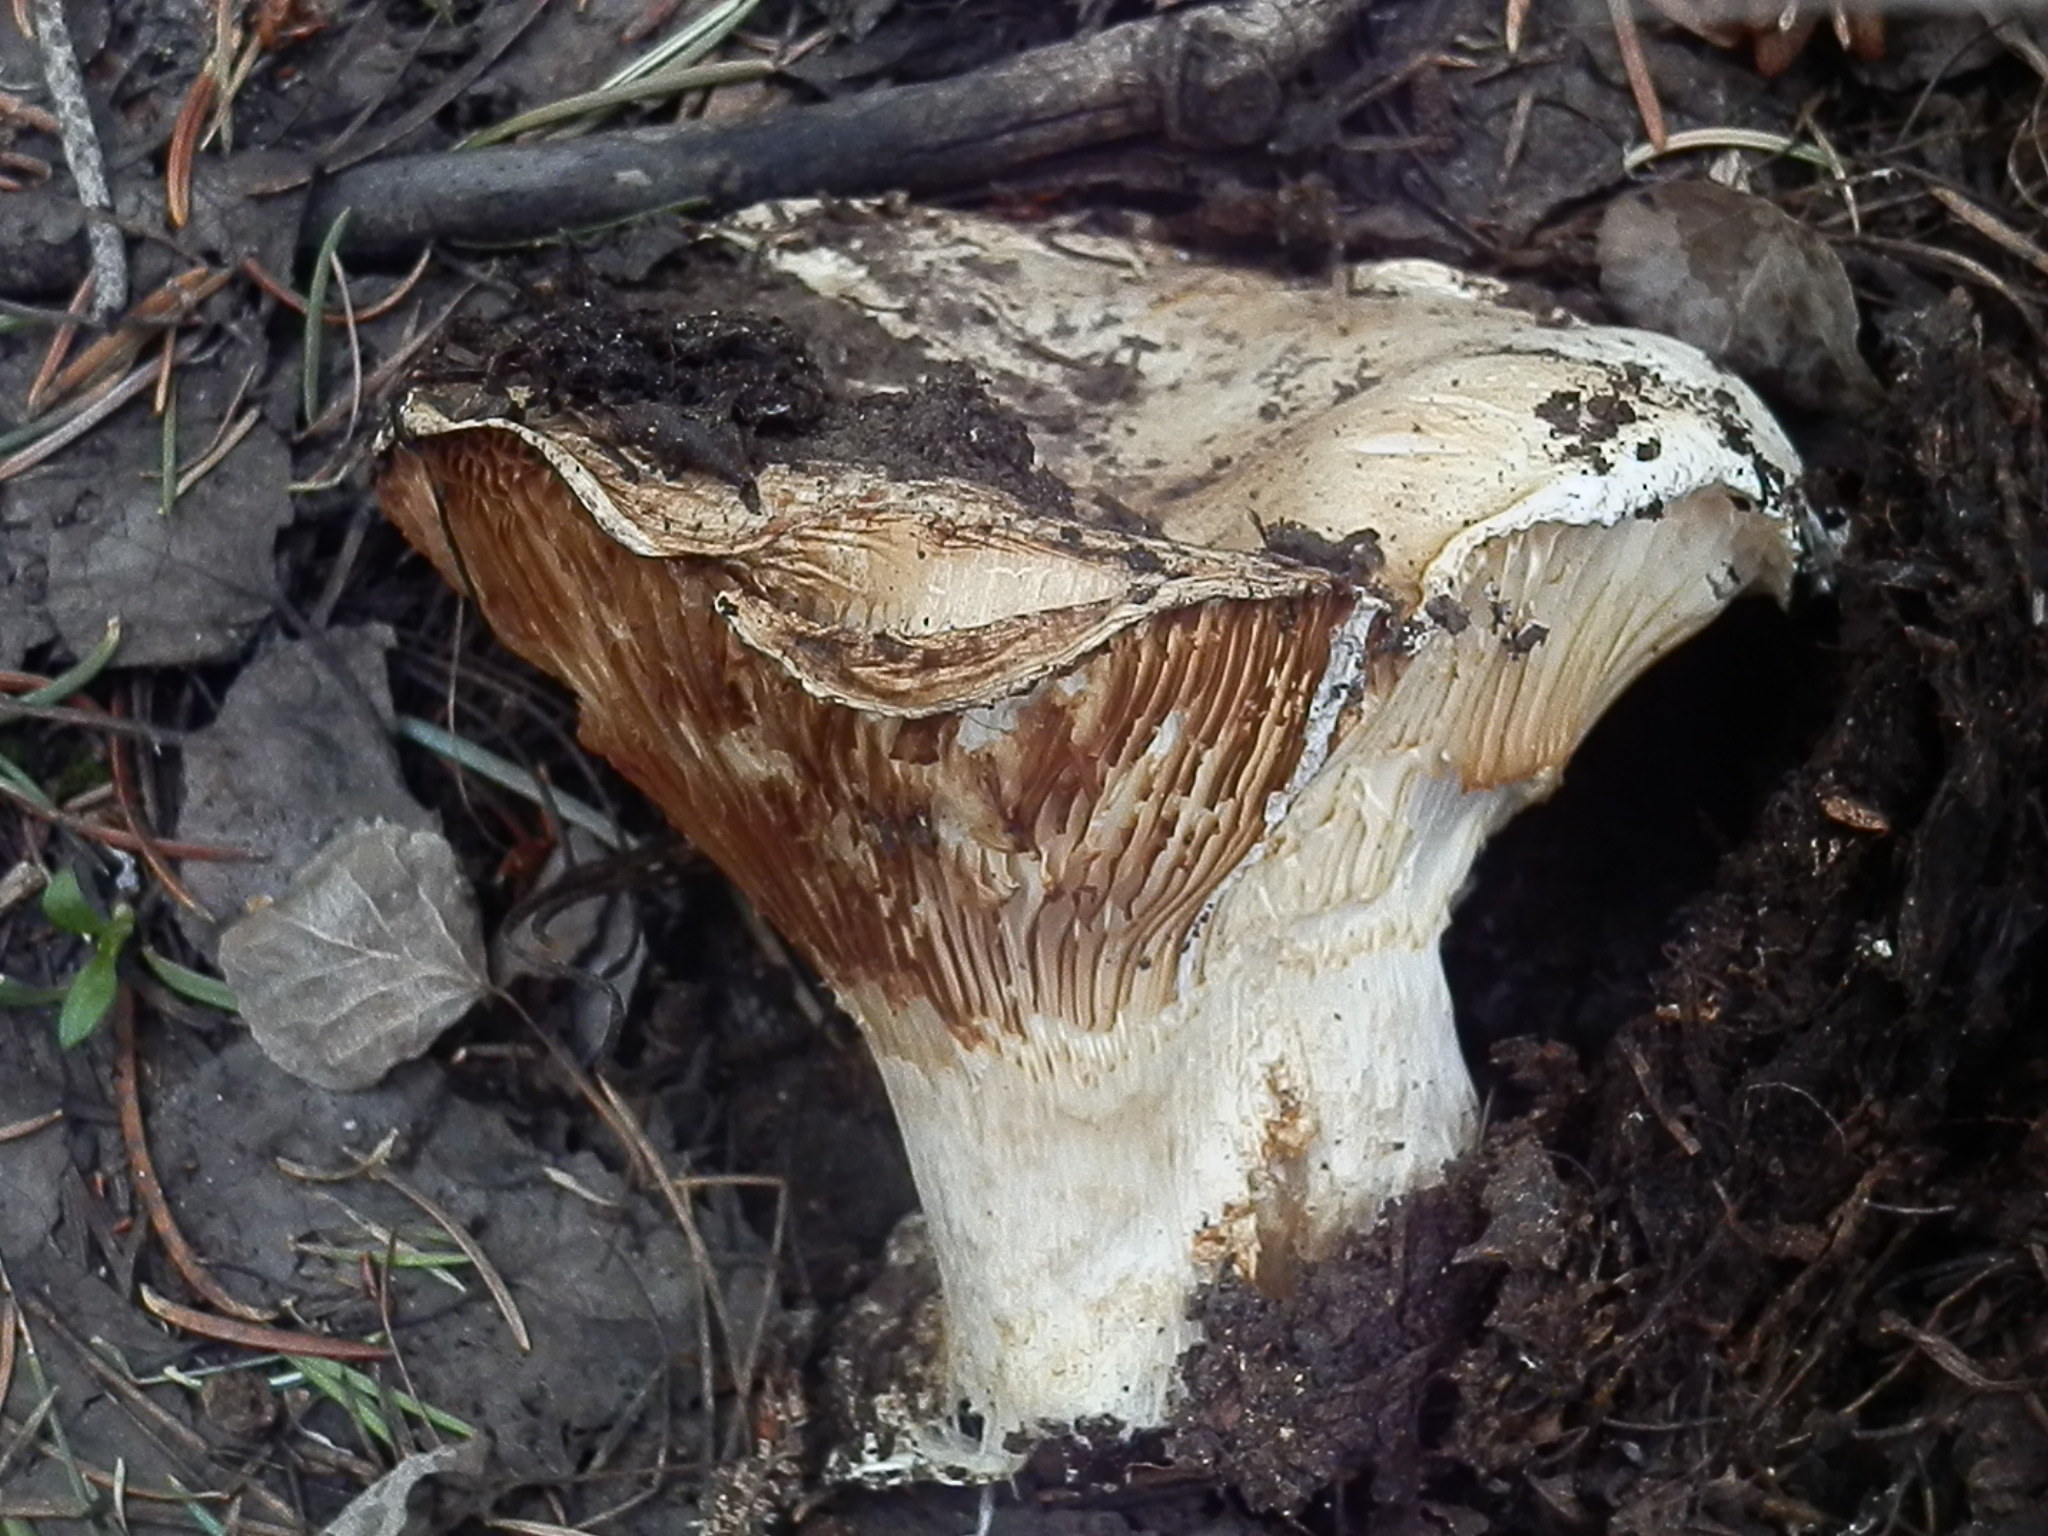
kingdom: Fungi
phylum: Basidiomycota
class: Agaricomycetes
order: Agaricales
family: Hygrophoraceae
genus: Hygrophorus
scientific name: Hygrophorus subalpinus
